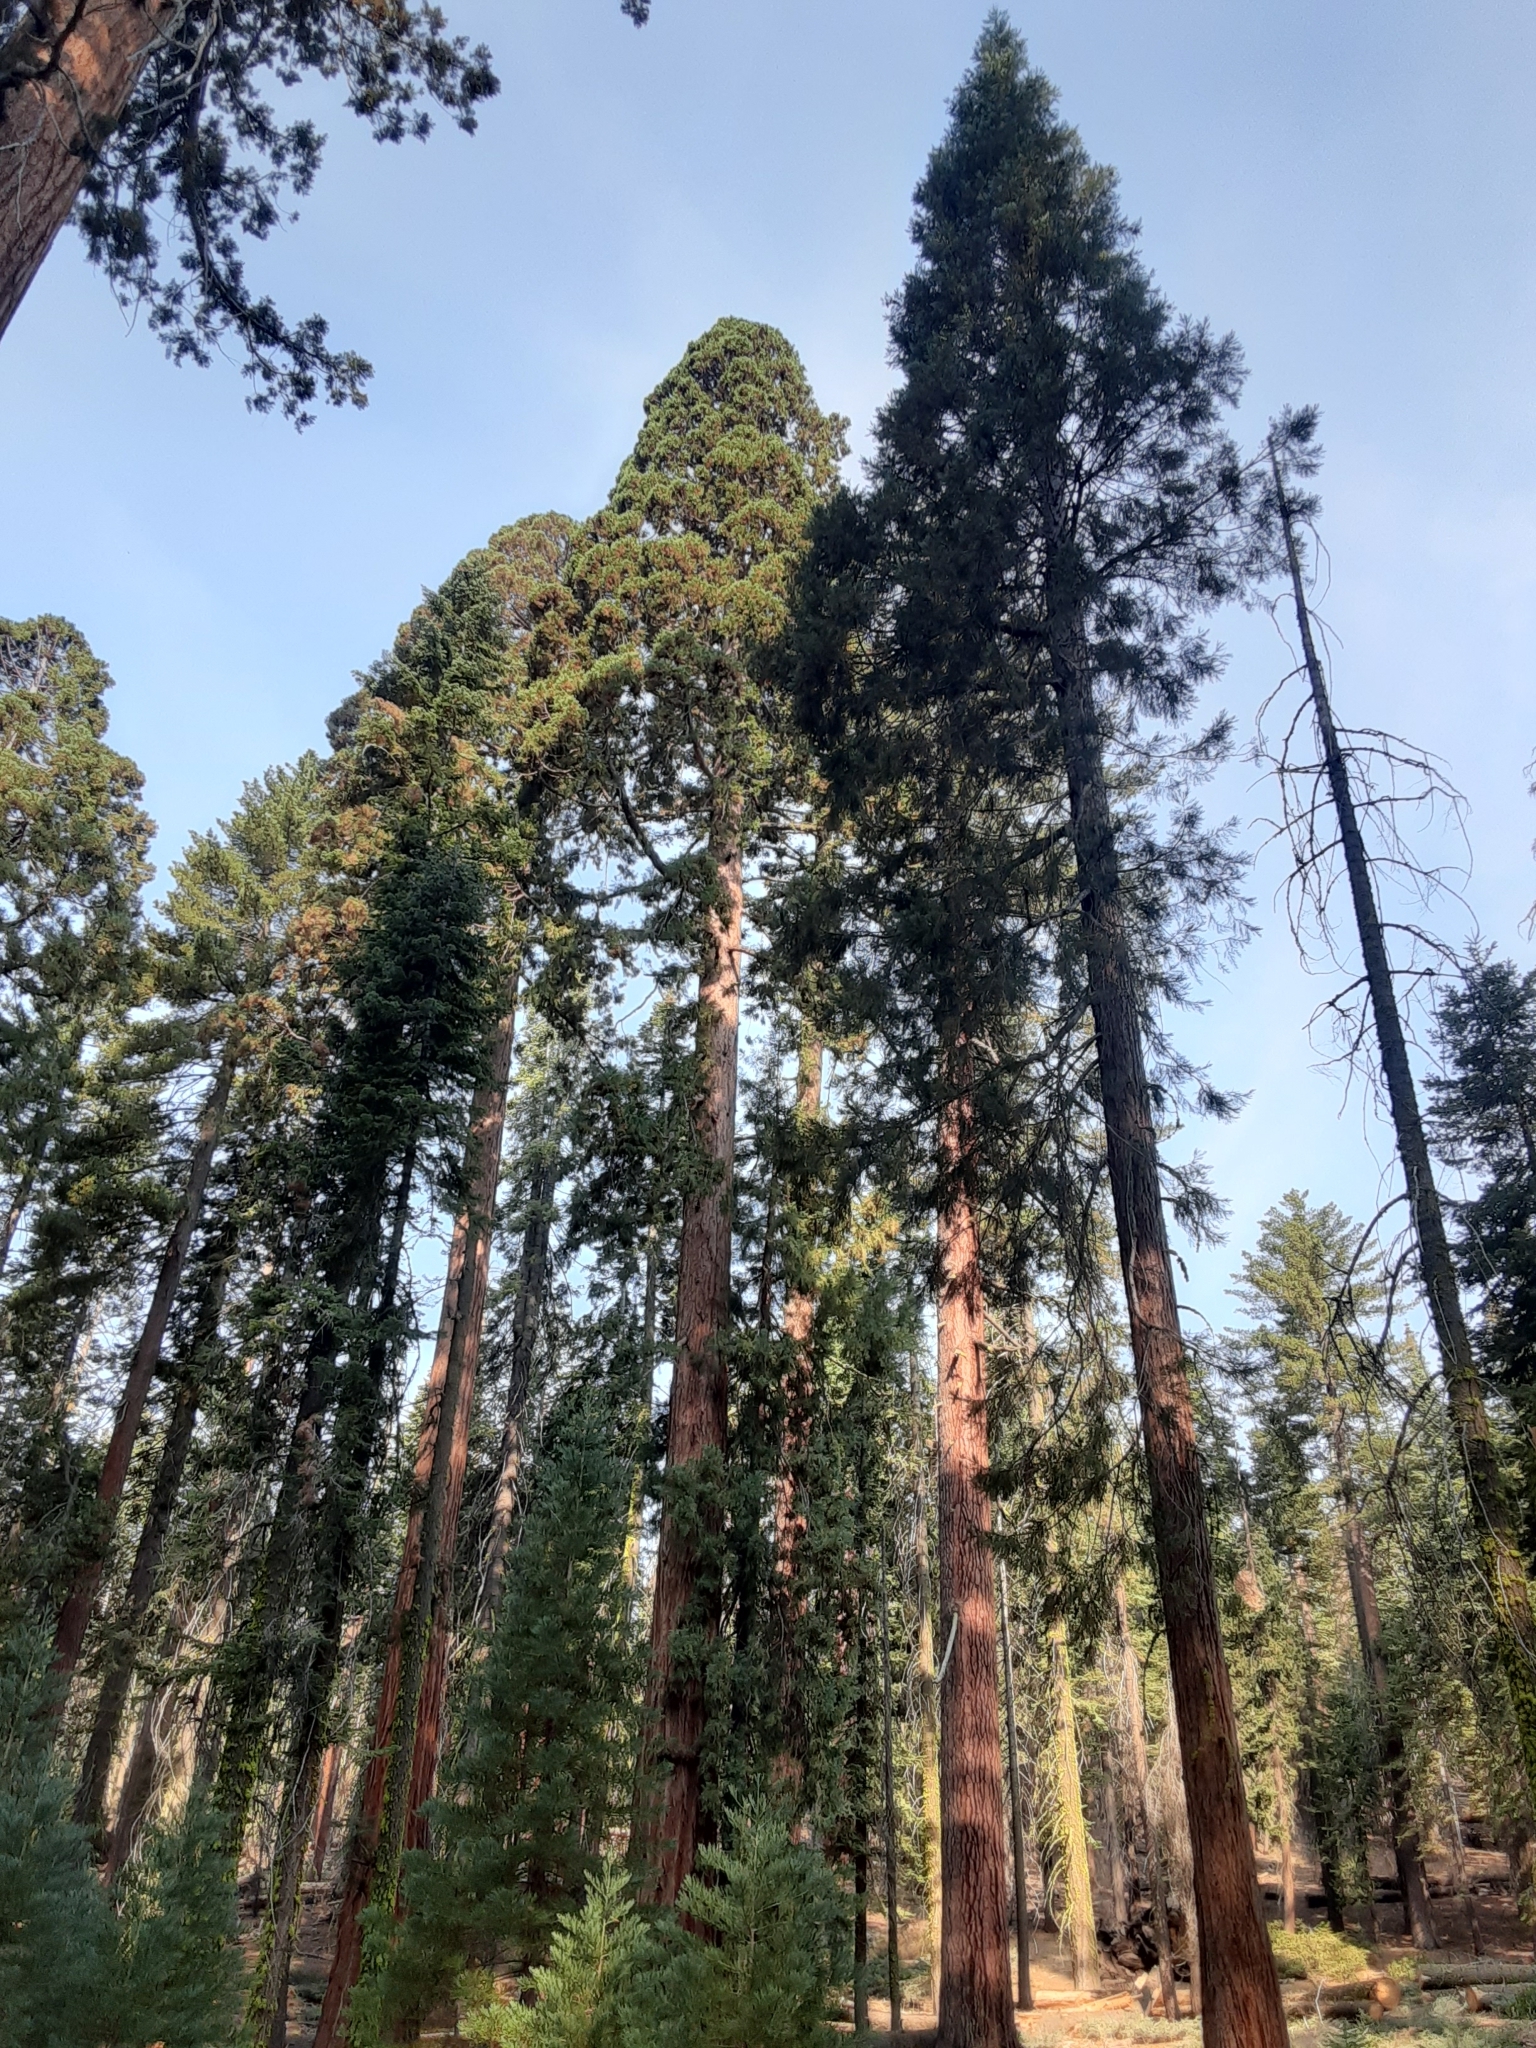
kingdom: Plantae
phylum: Tracheophyta
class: Pinopsida
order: Pinales
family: Cupressaceae
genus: Sequoiadendron
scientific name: Sequoiadendron giganteum
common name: Wellingtonia
